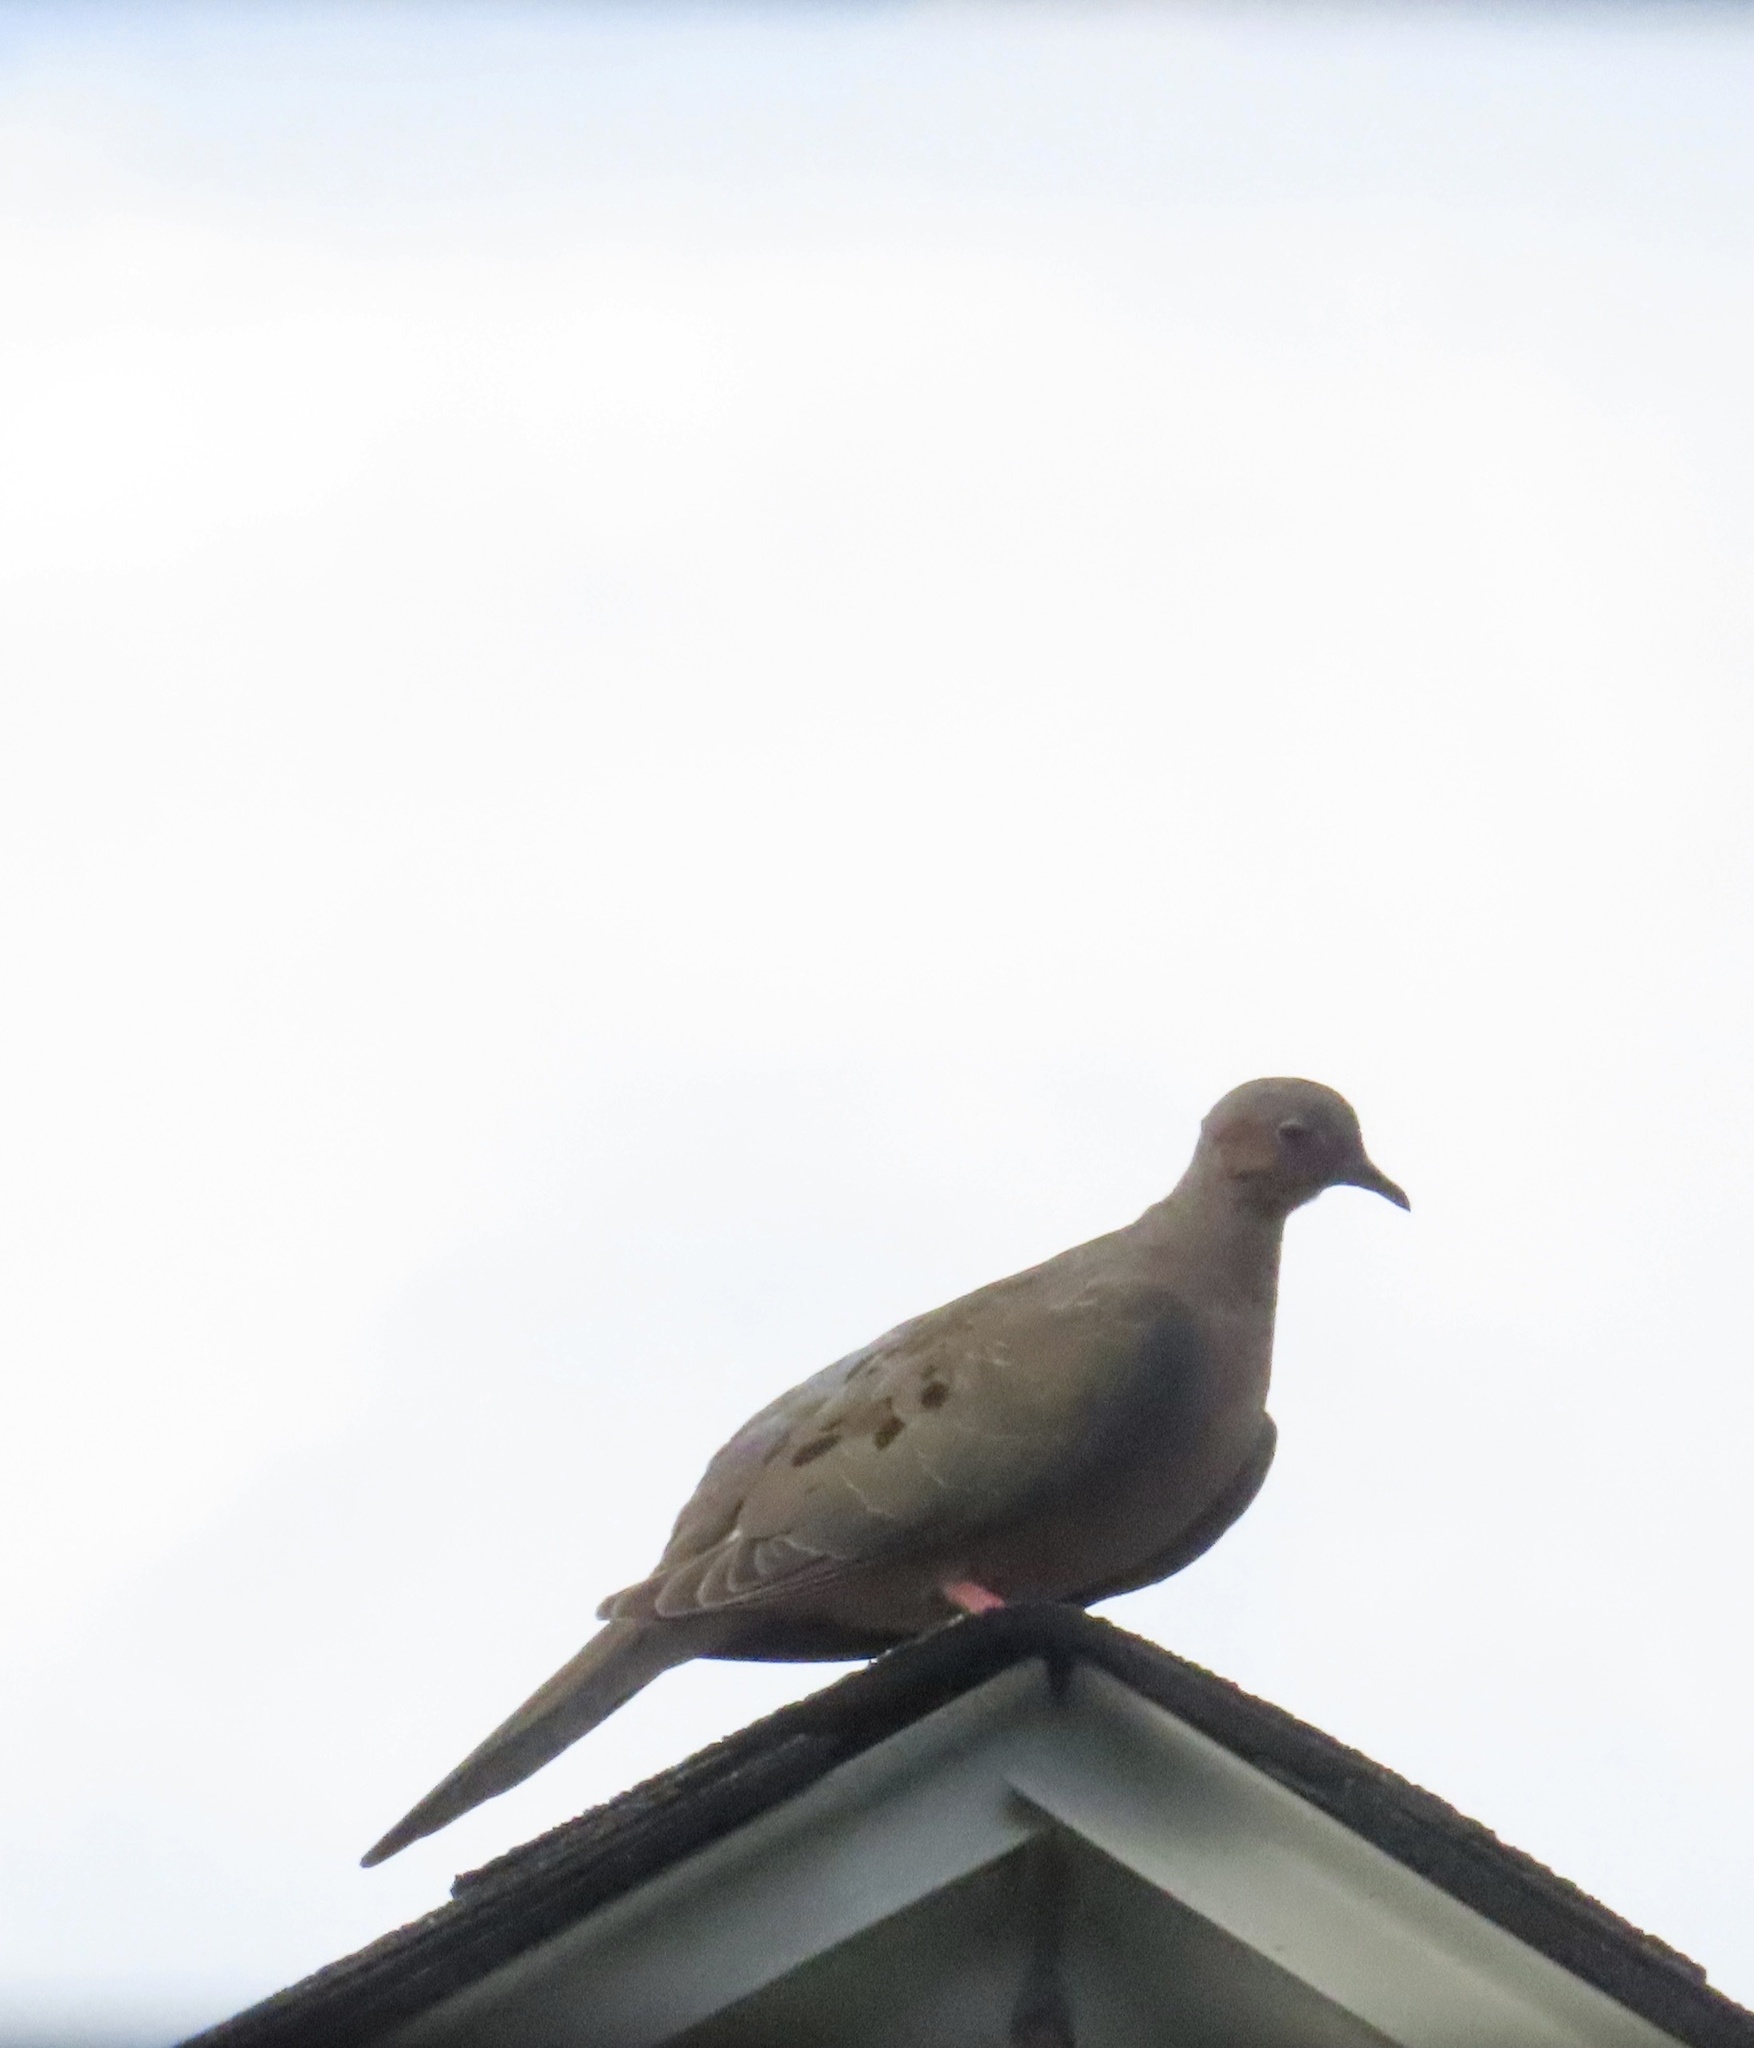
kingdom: Animalia
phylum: Chordata
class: Aves
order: Columbiformes
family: Columbidae
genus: Zenaida
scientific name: Zenaida macroura
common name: Mourning dove
